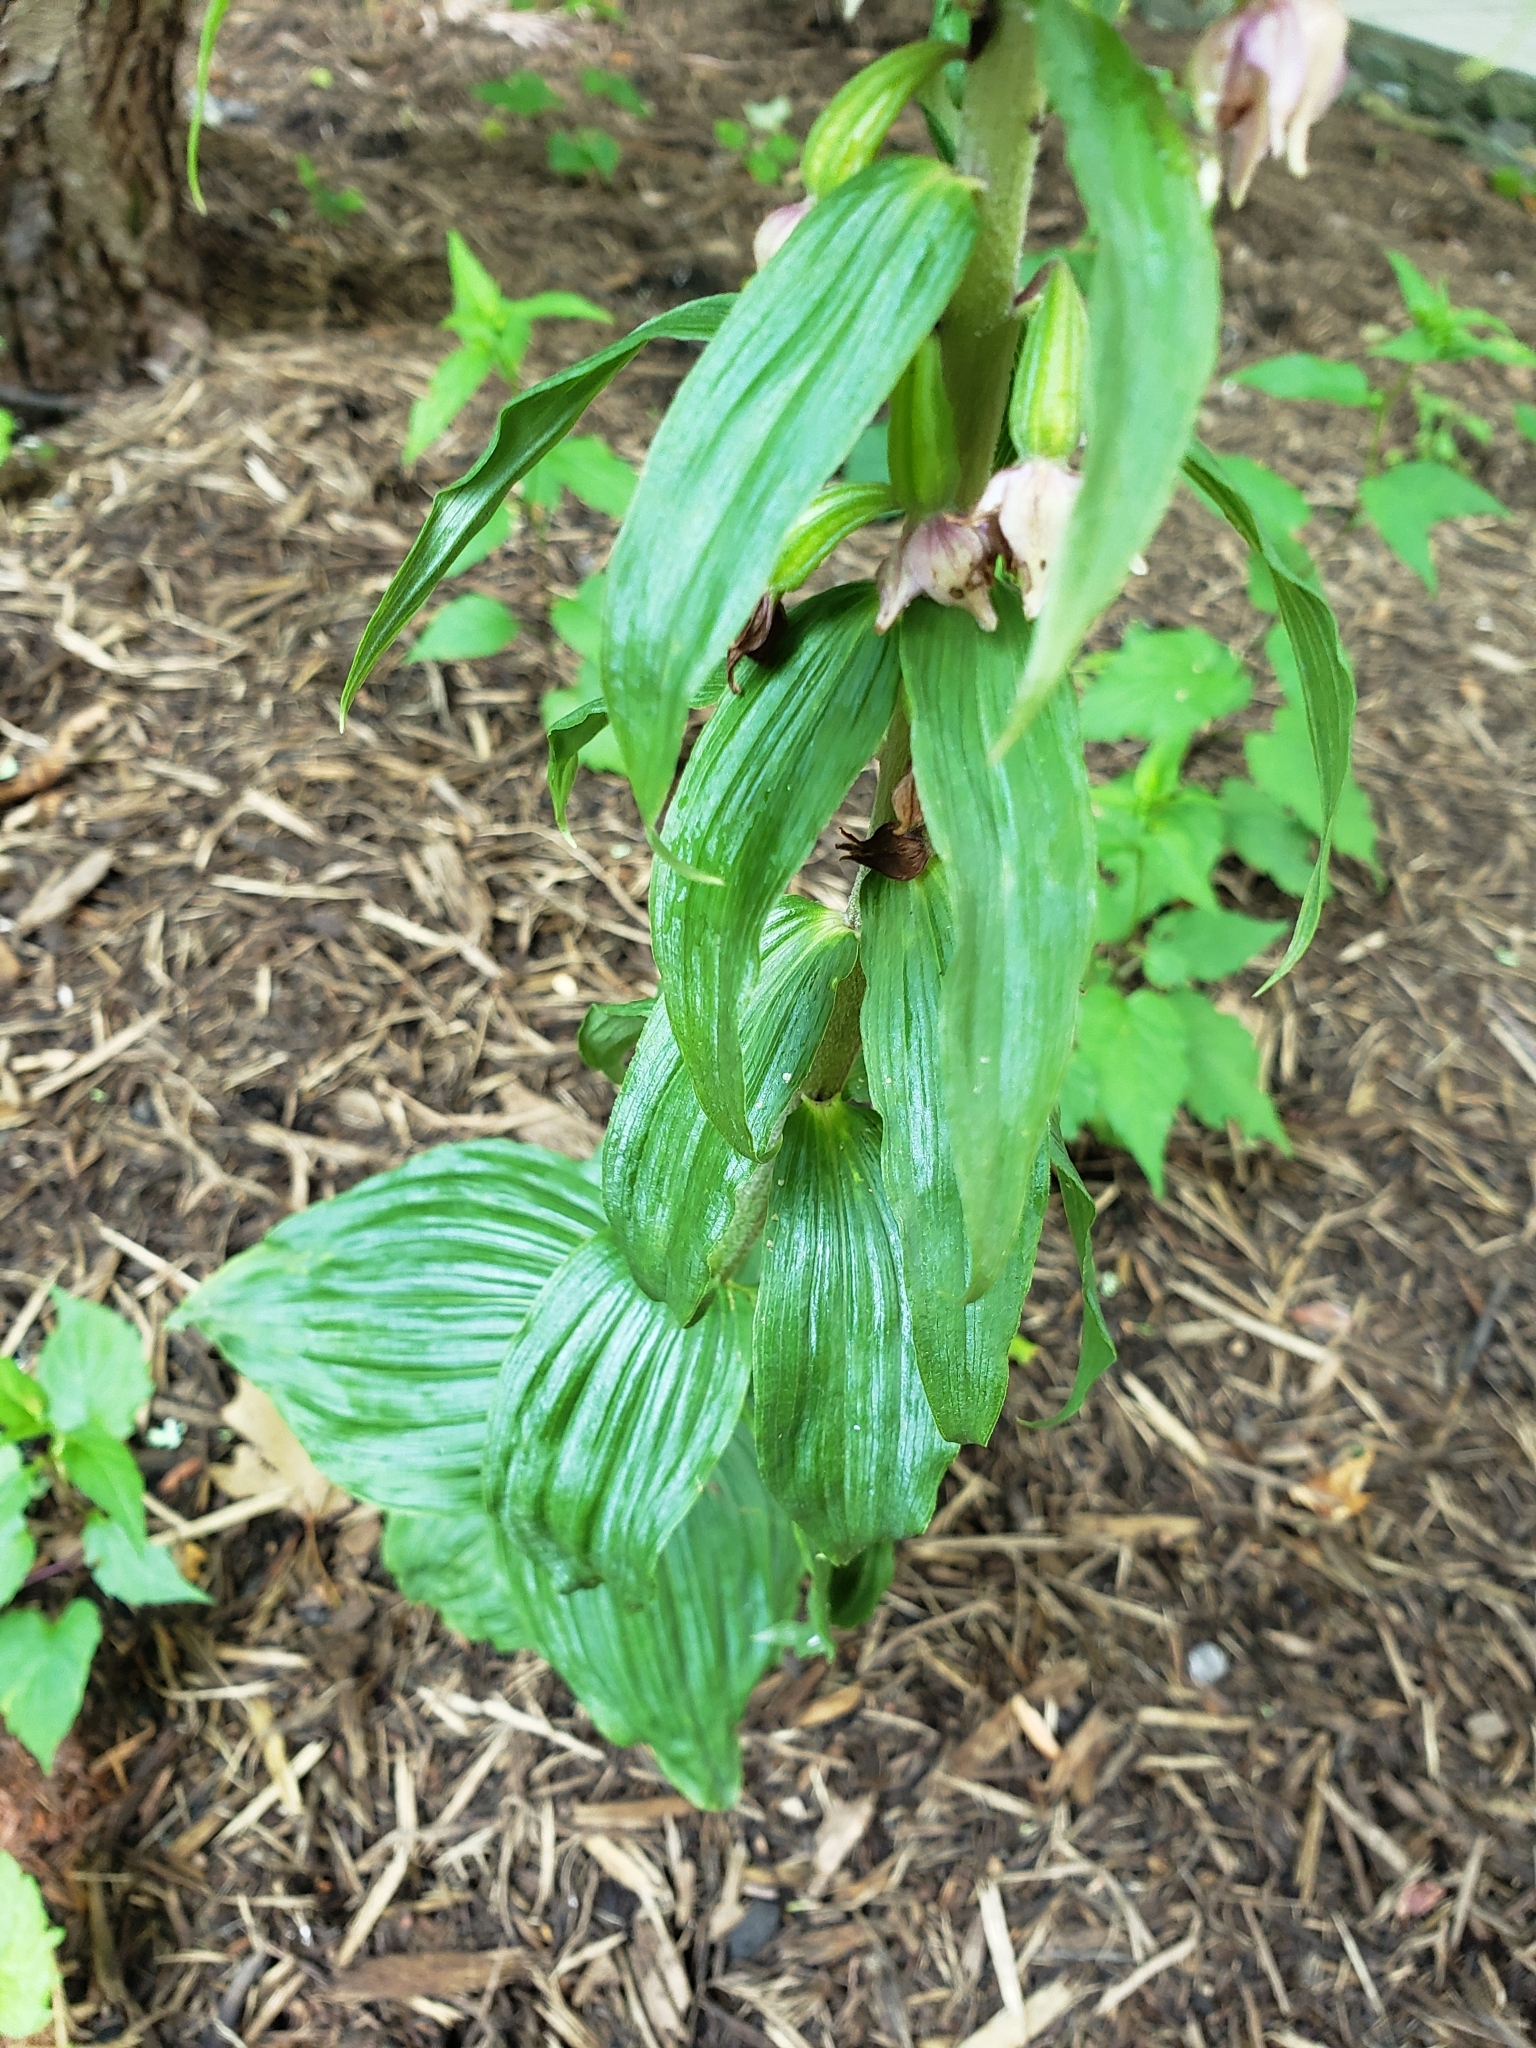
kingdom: Plantae
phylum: Tracheophyta
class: Liliopsida
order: Asparagales
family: Orchidaceae
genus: Epipactis
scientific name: Epipactis helleborine
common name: Broad-leaved helleborine
